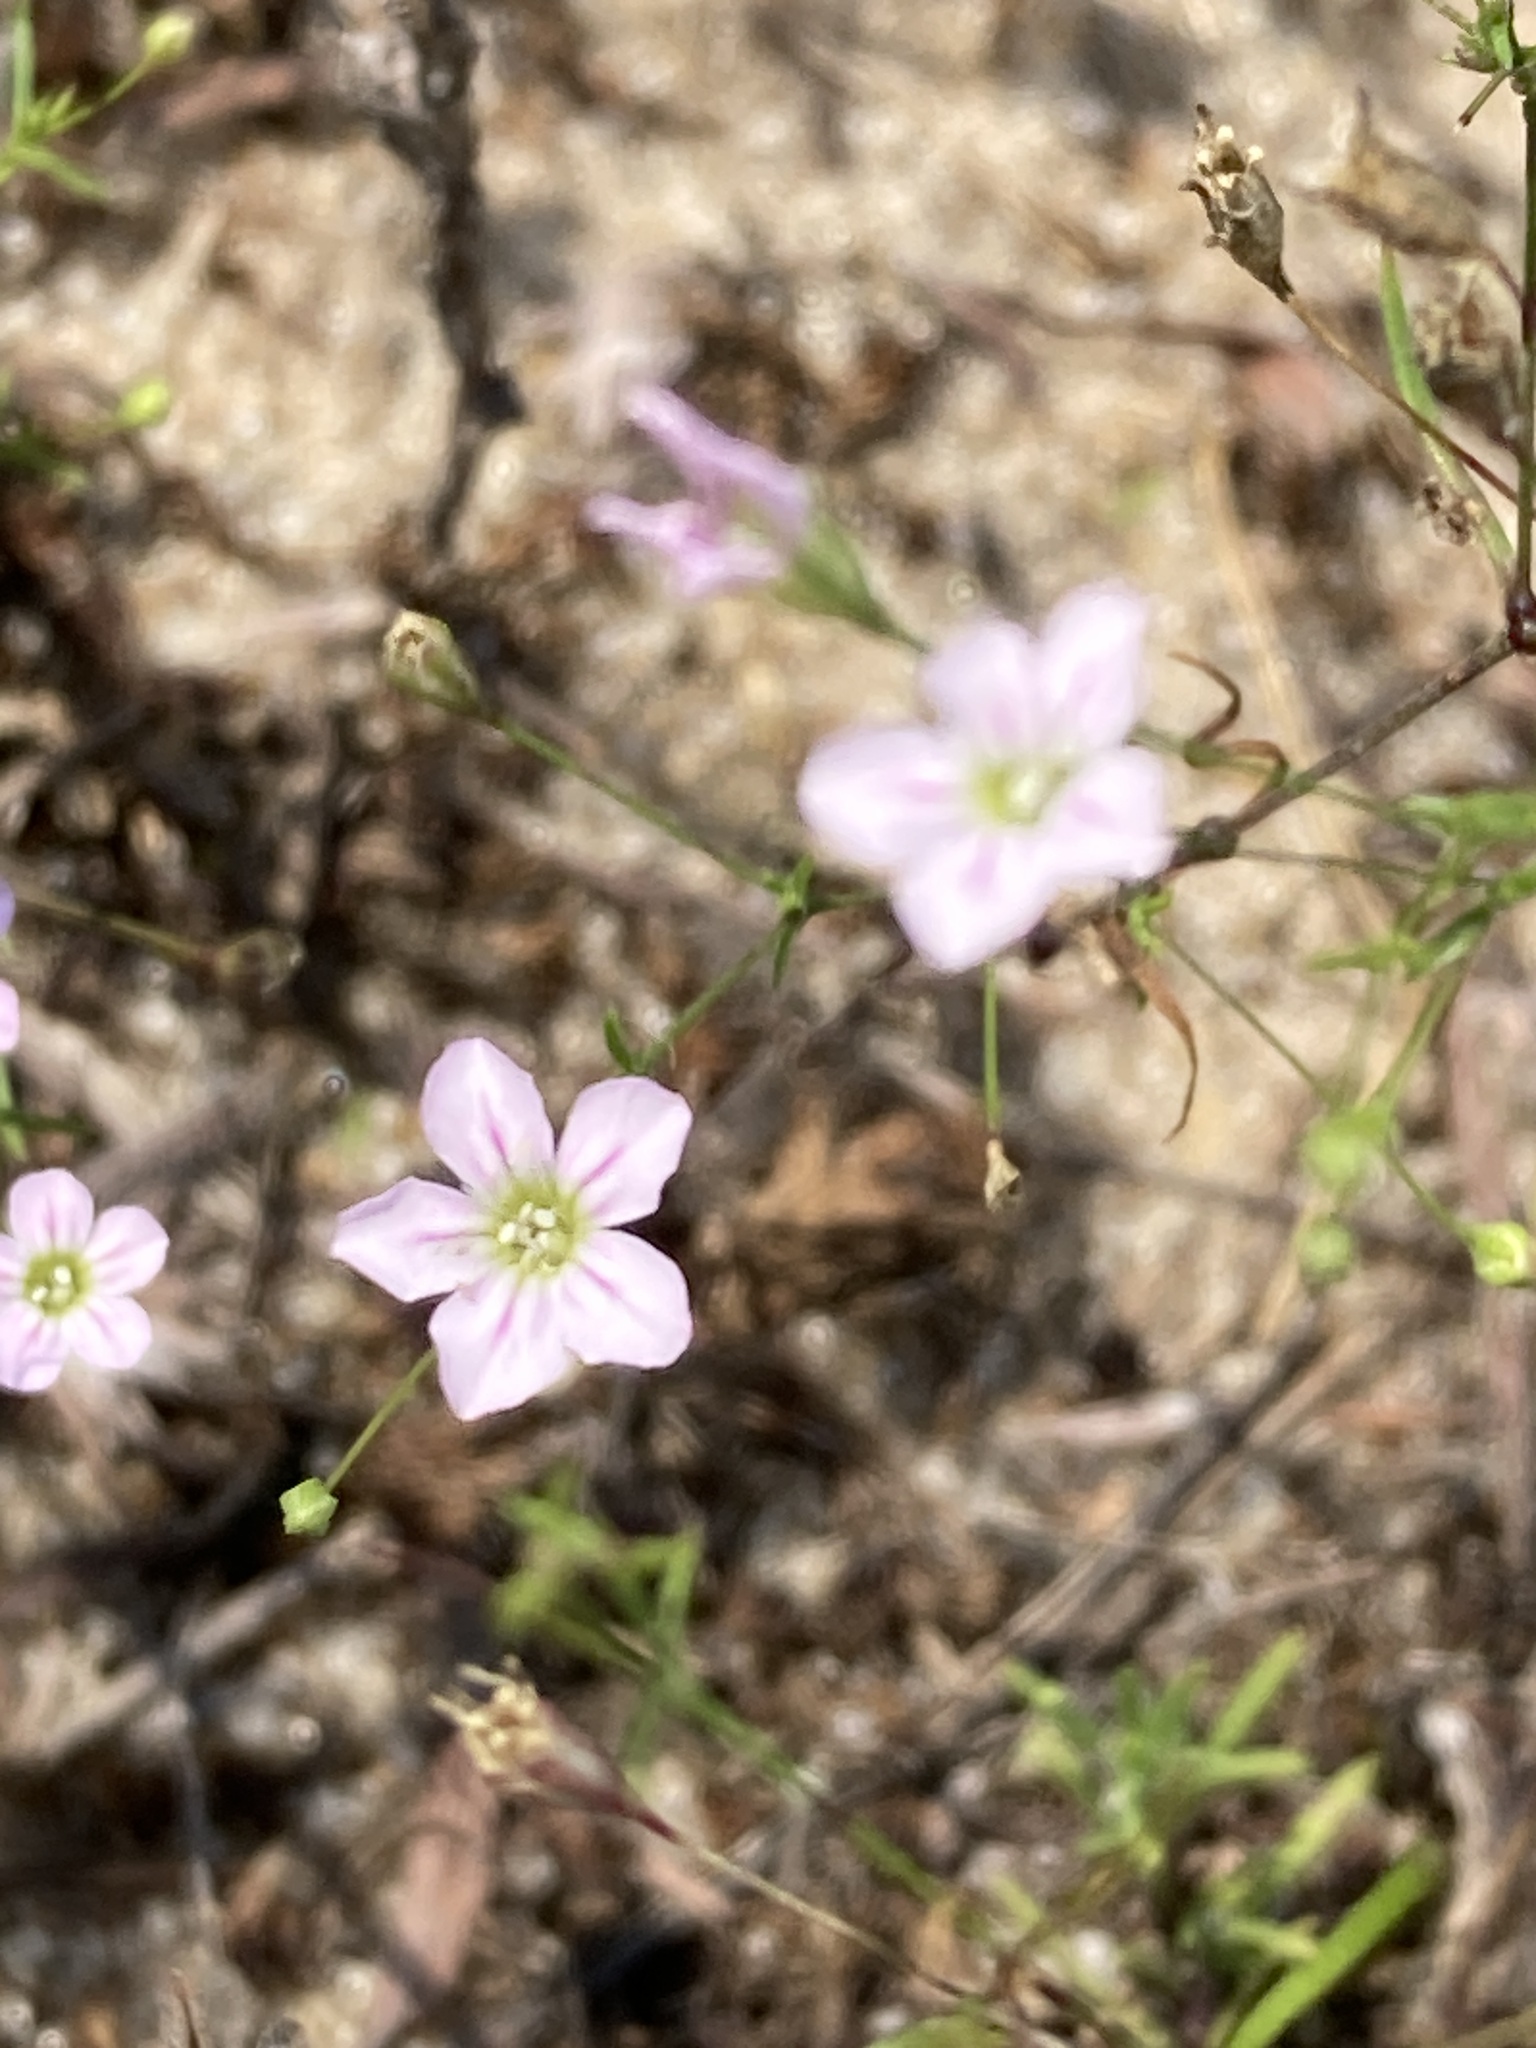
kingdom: Plantae
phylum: Tracheophyta
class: Magnoliopsida
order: Caryophyllales
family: Caryophyllaceae
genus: Psammophiliella
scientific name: Psammophiliella muralis
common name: Cushion baby's-breath
